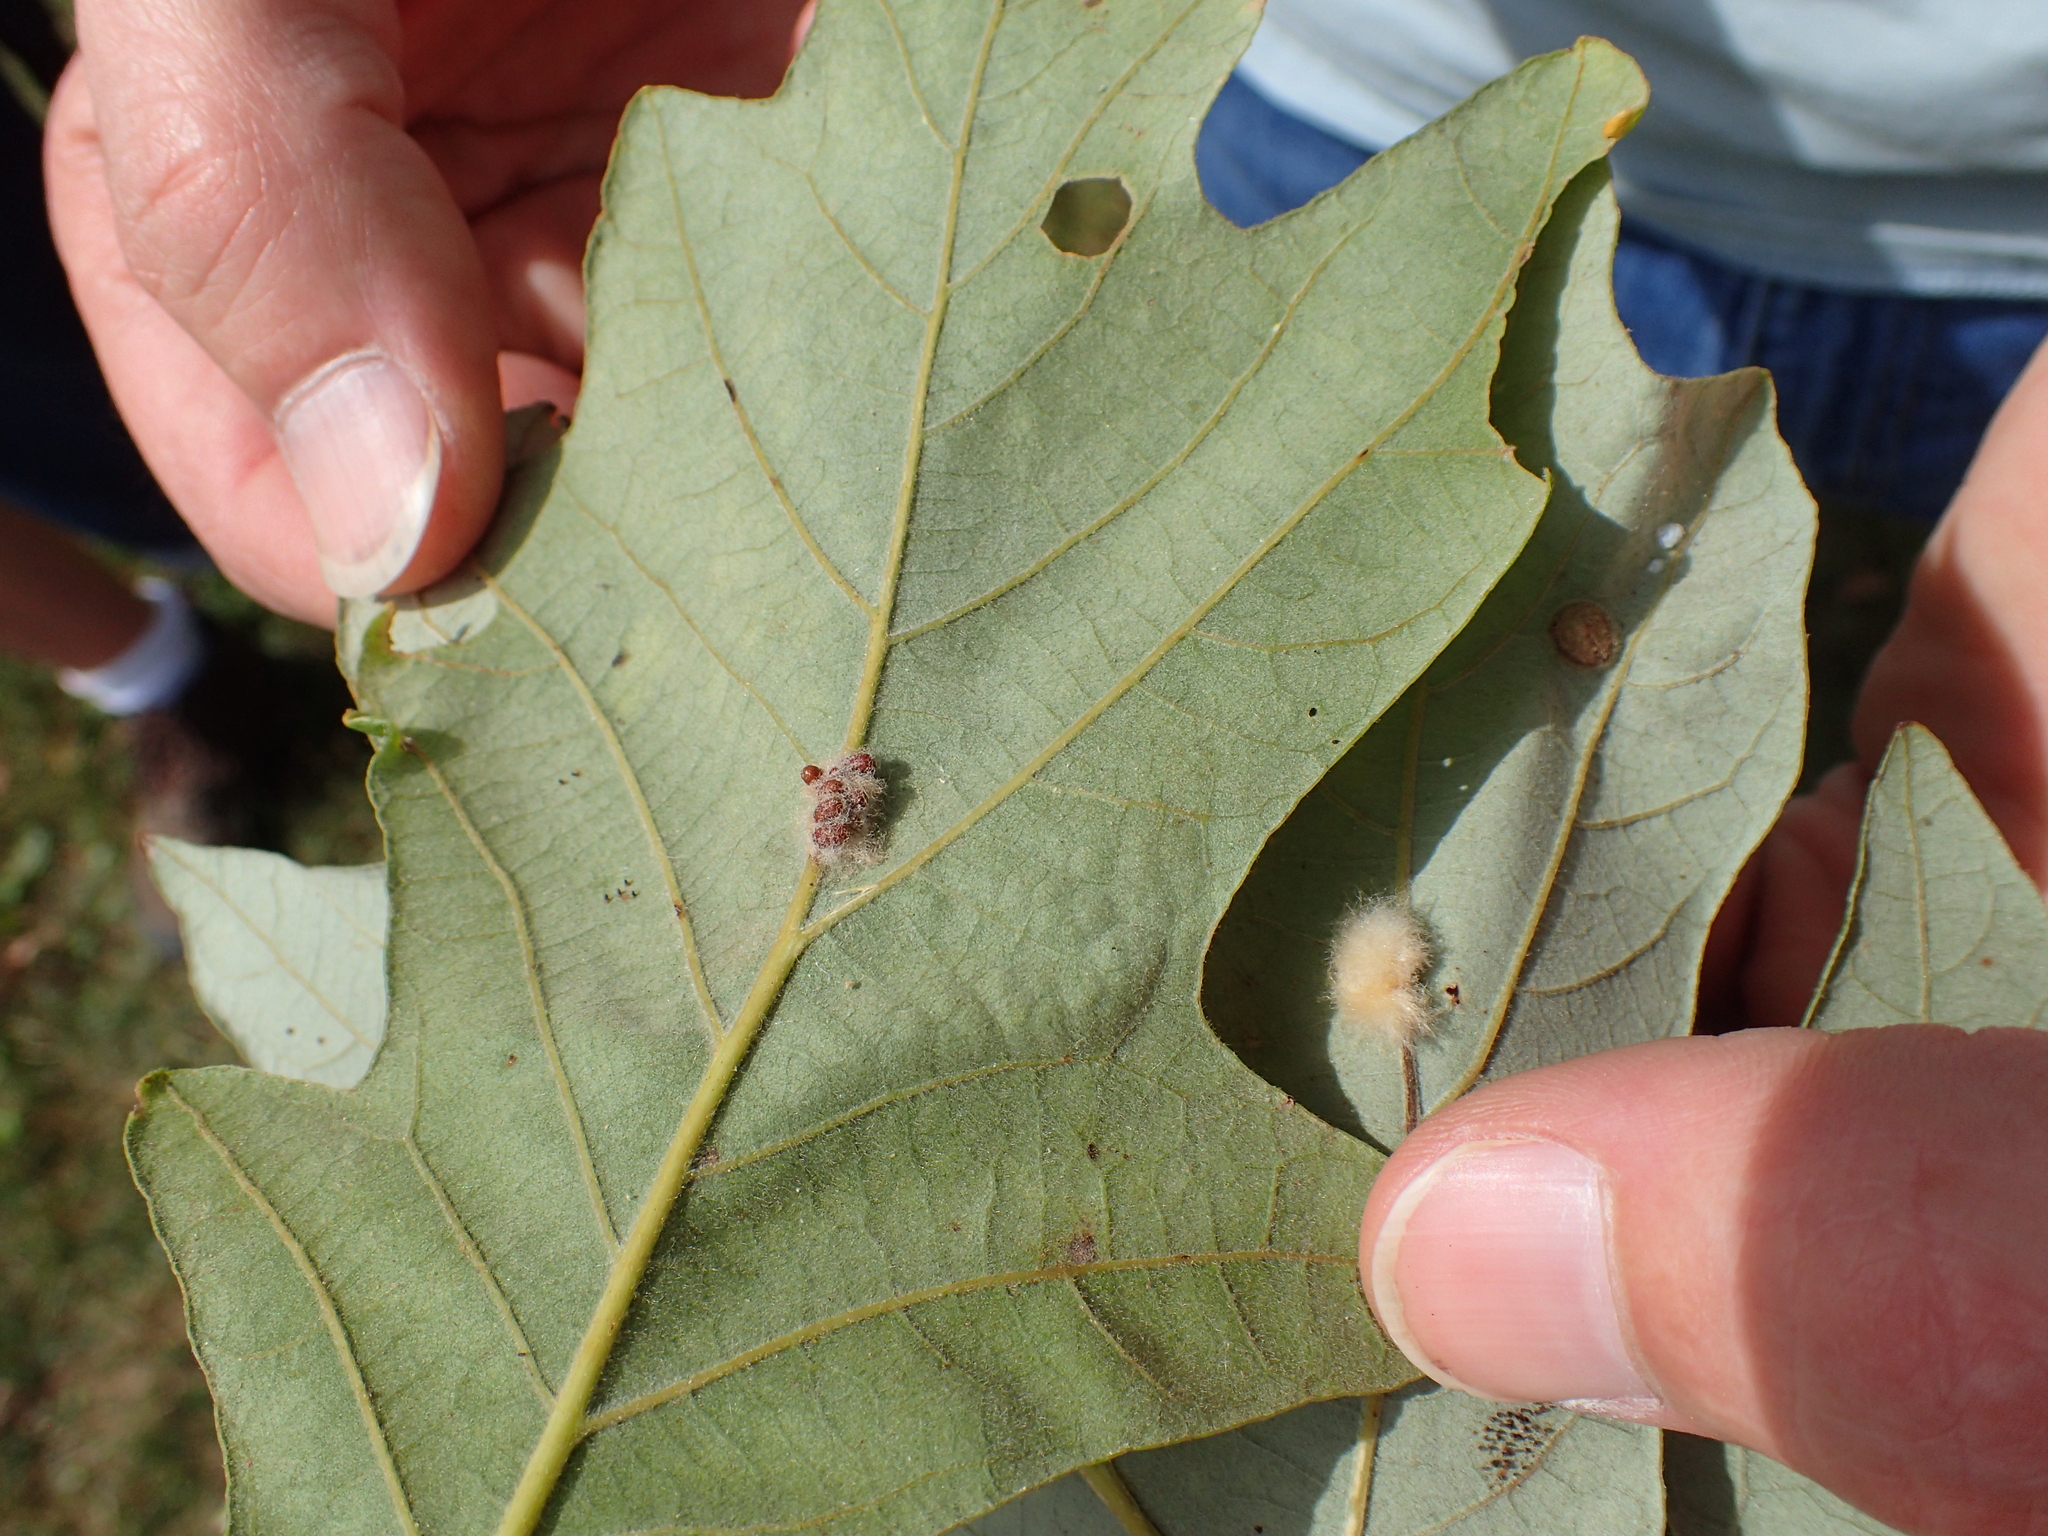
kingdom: Animalia
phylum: Arthropoda
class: Insecta
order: Hymenoptera
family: Cynipidae
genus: Andricus
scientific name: Andricus Druon ignotum
